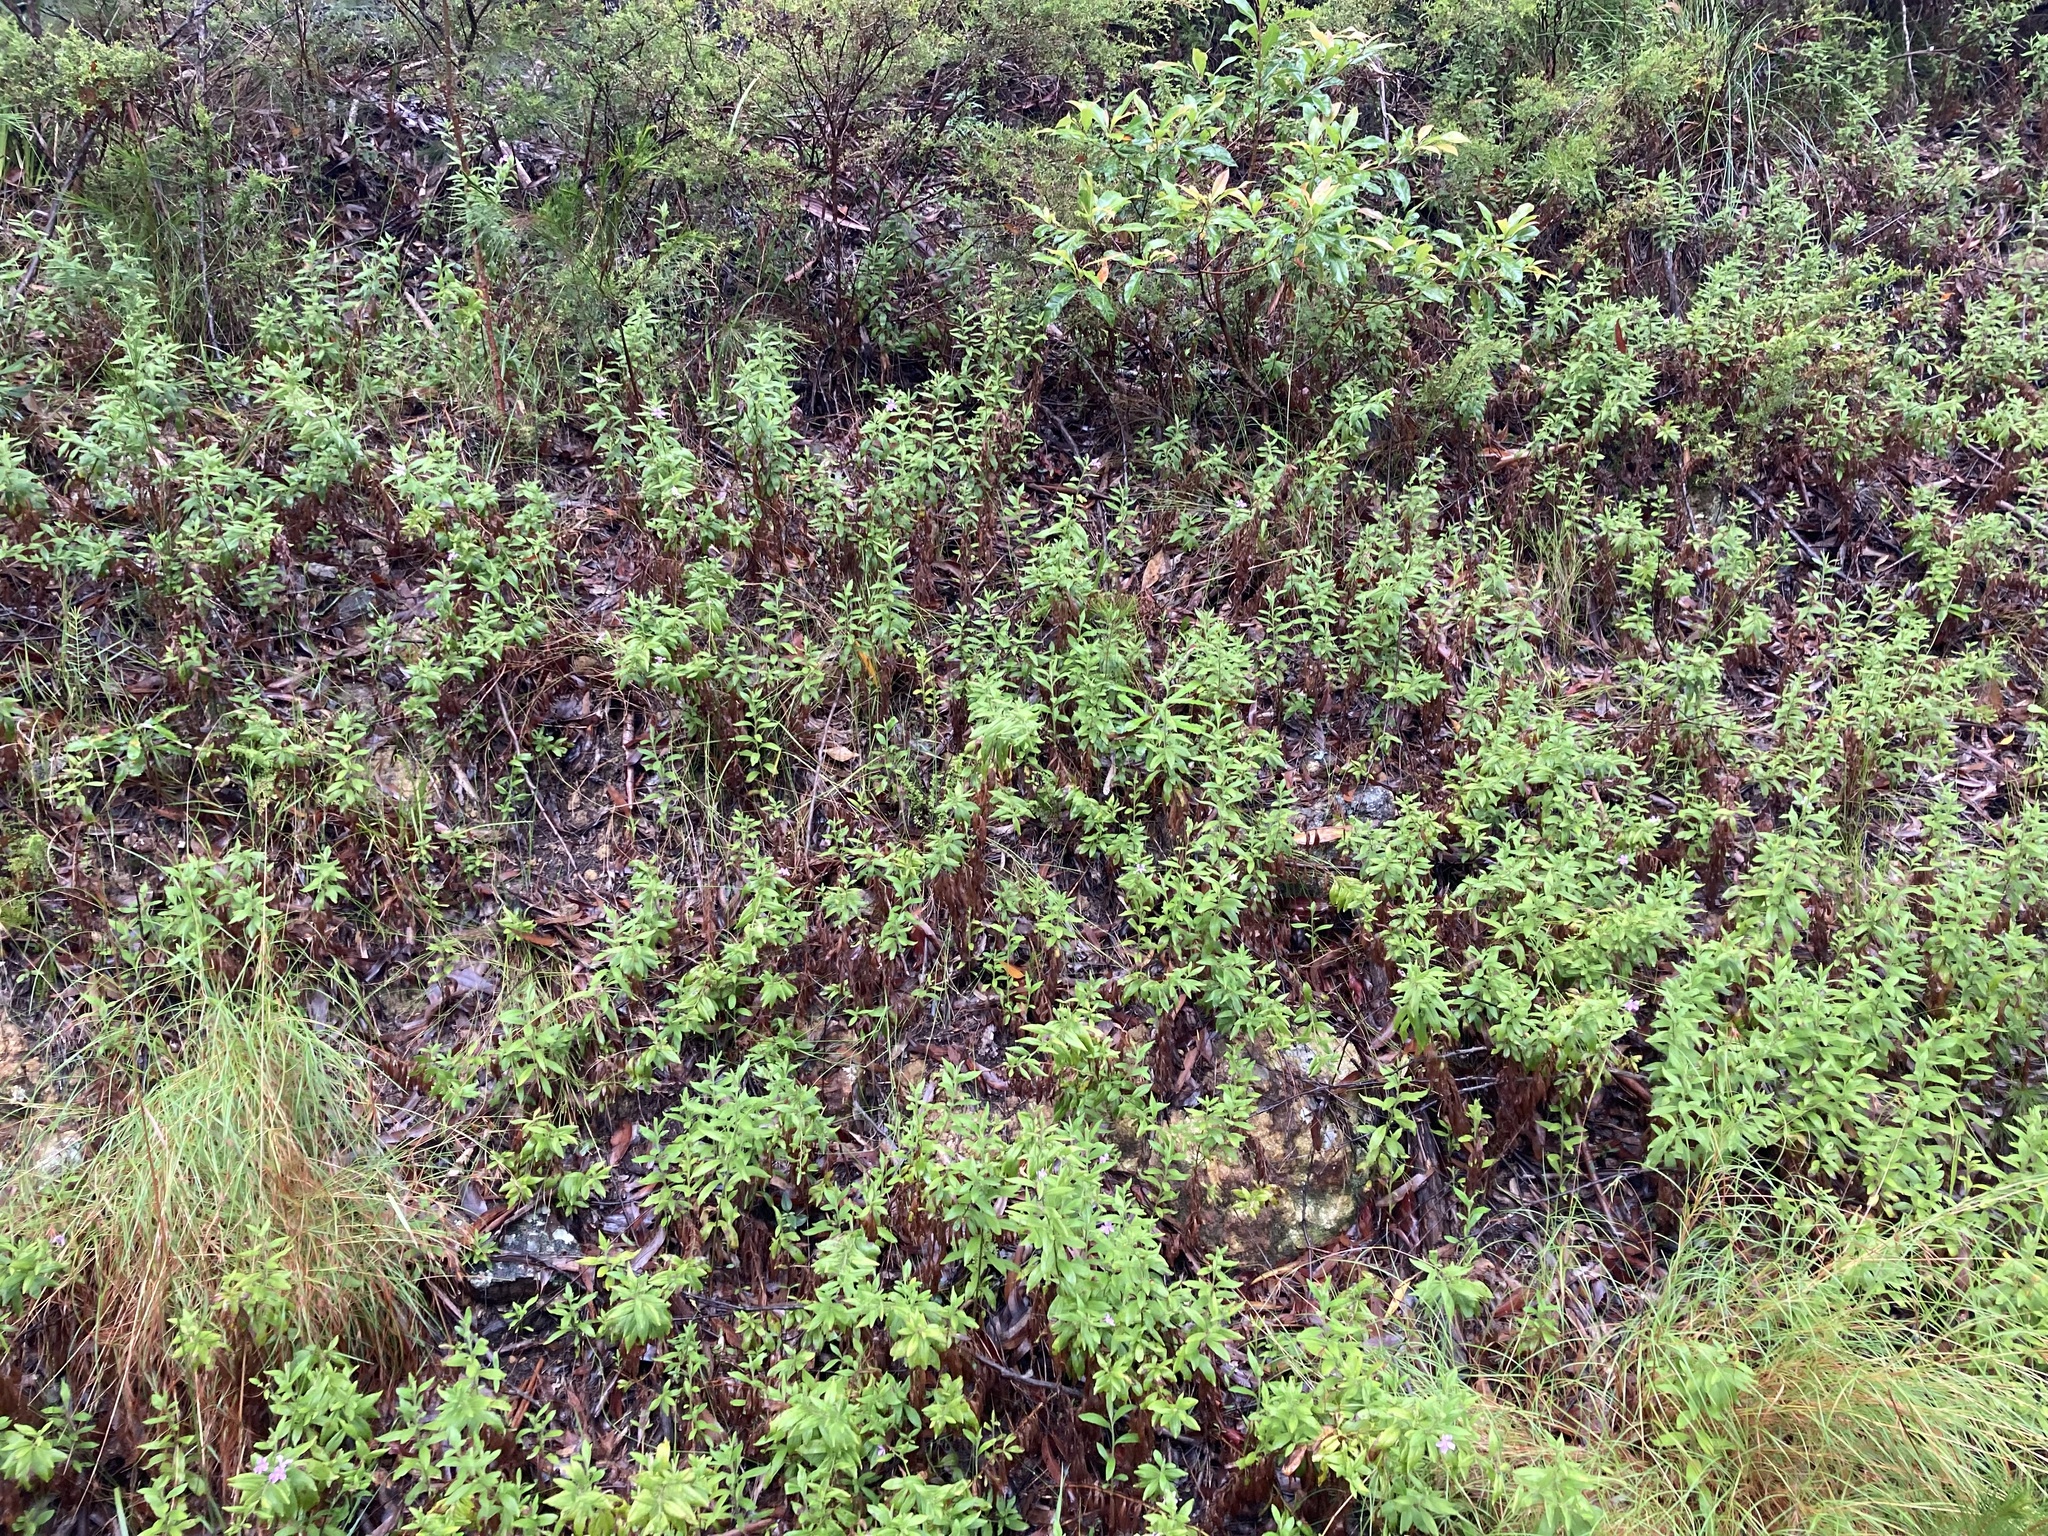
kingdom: Plantae
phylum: Tracheophyta
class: Magnoliopsida
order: Asterales
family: Goodeniaceae
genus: Goodenia
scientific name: Goodenia chisholmii
